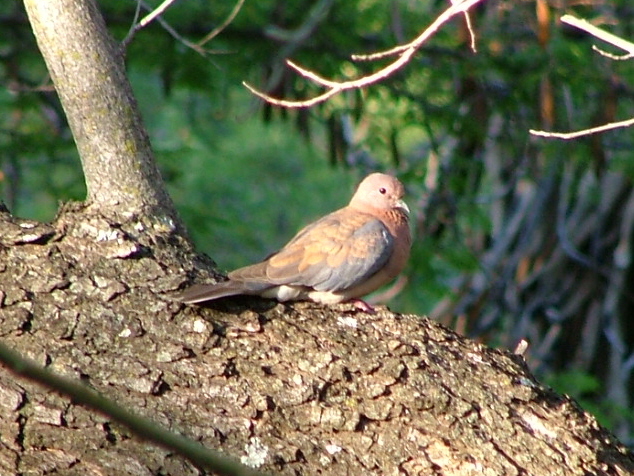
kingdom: Animalia
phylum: Chordata
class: Aves
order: Columbiformes
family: Columbidae
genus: Spilopelia
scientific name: Spilopelia senegalensis
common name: Laughing dove
